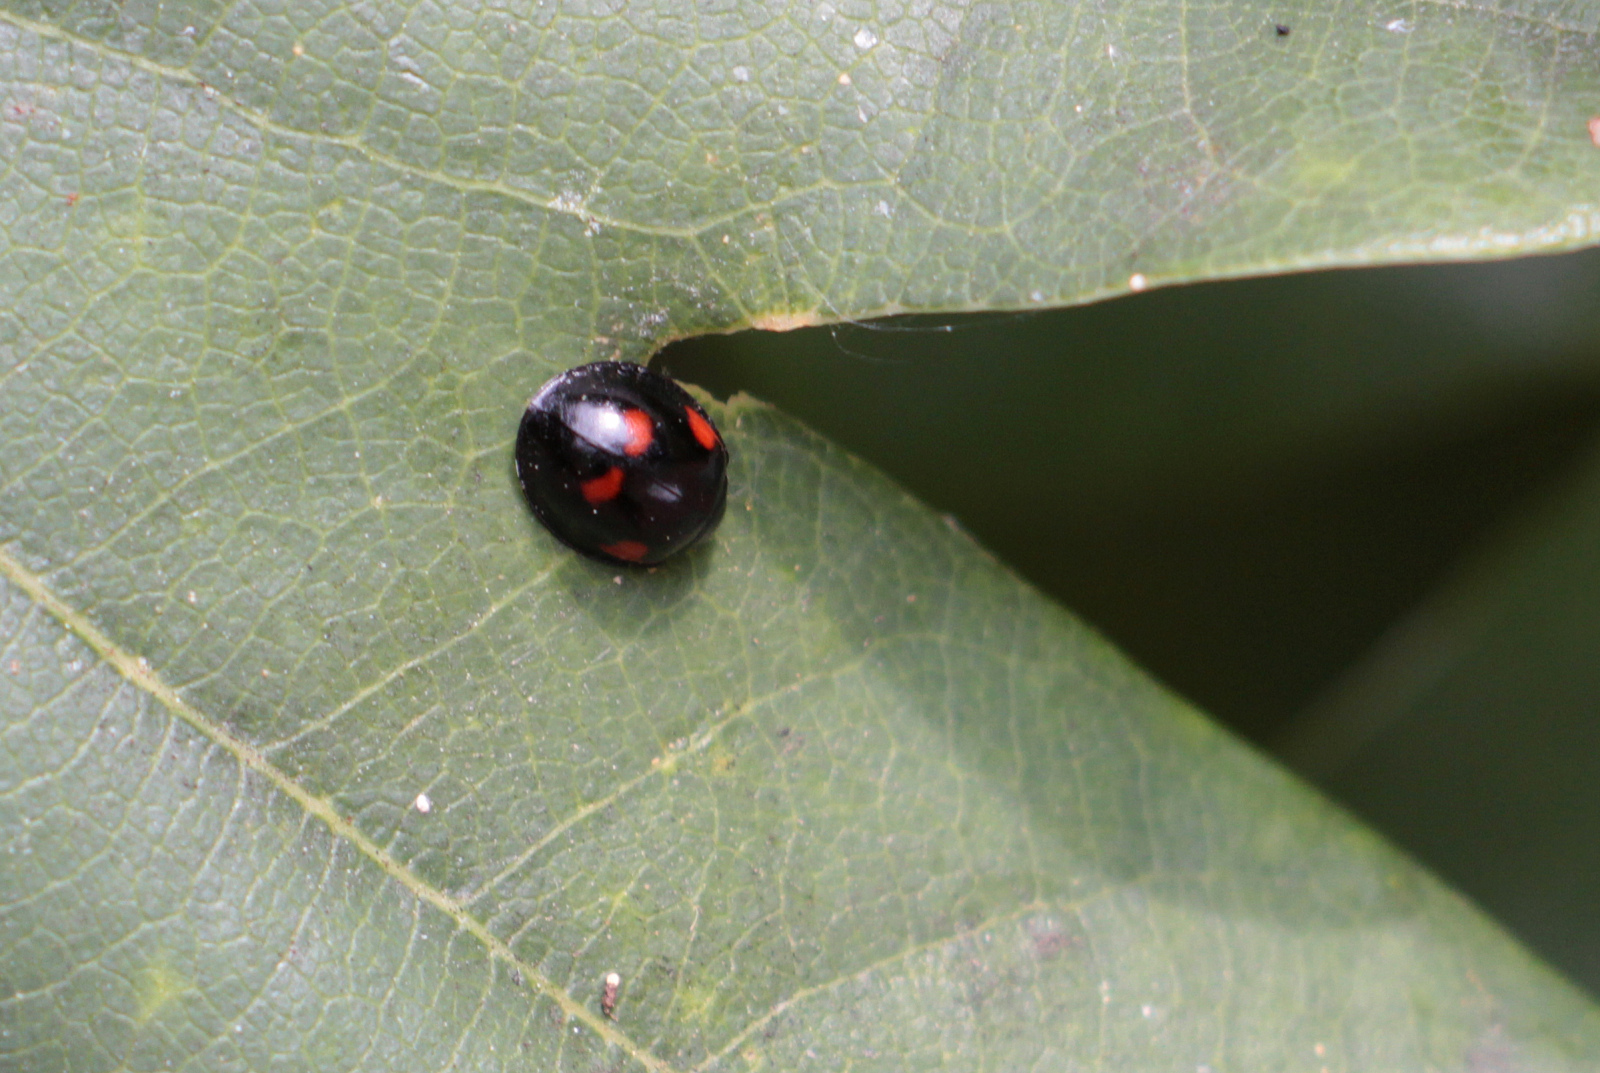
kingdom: Animalia
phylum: Arthropoda
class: Insecta
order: Coleoptera
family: Coccinellidae
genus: Brumus
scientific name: Brumus quadripustulatus
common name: Ladybird beetle
